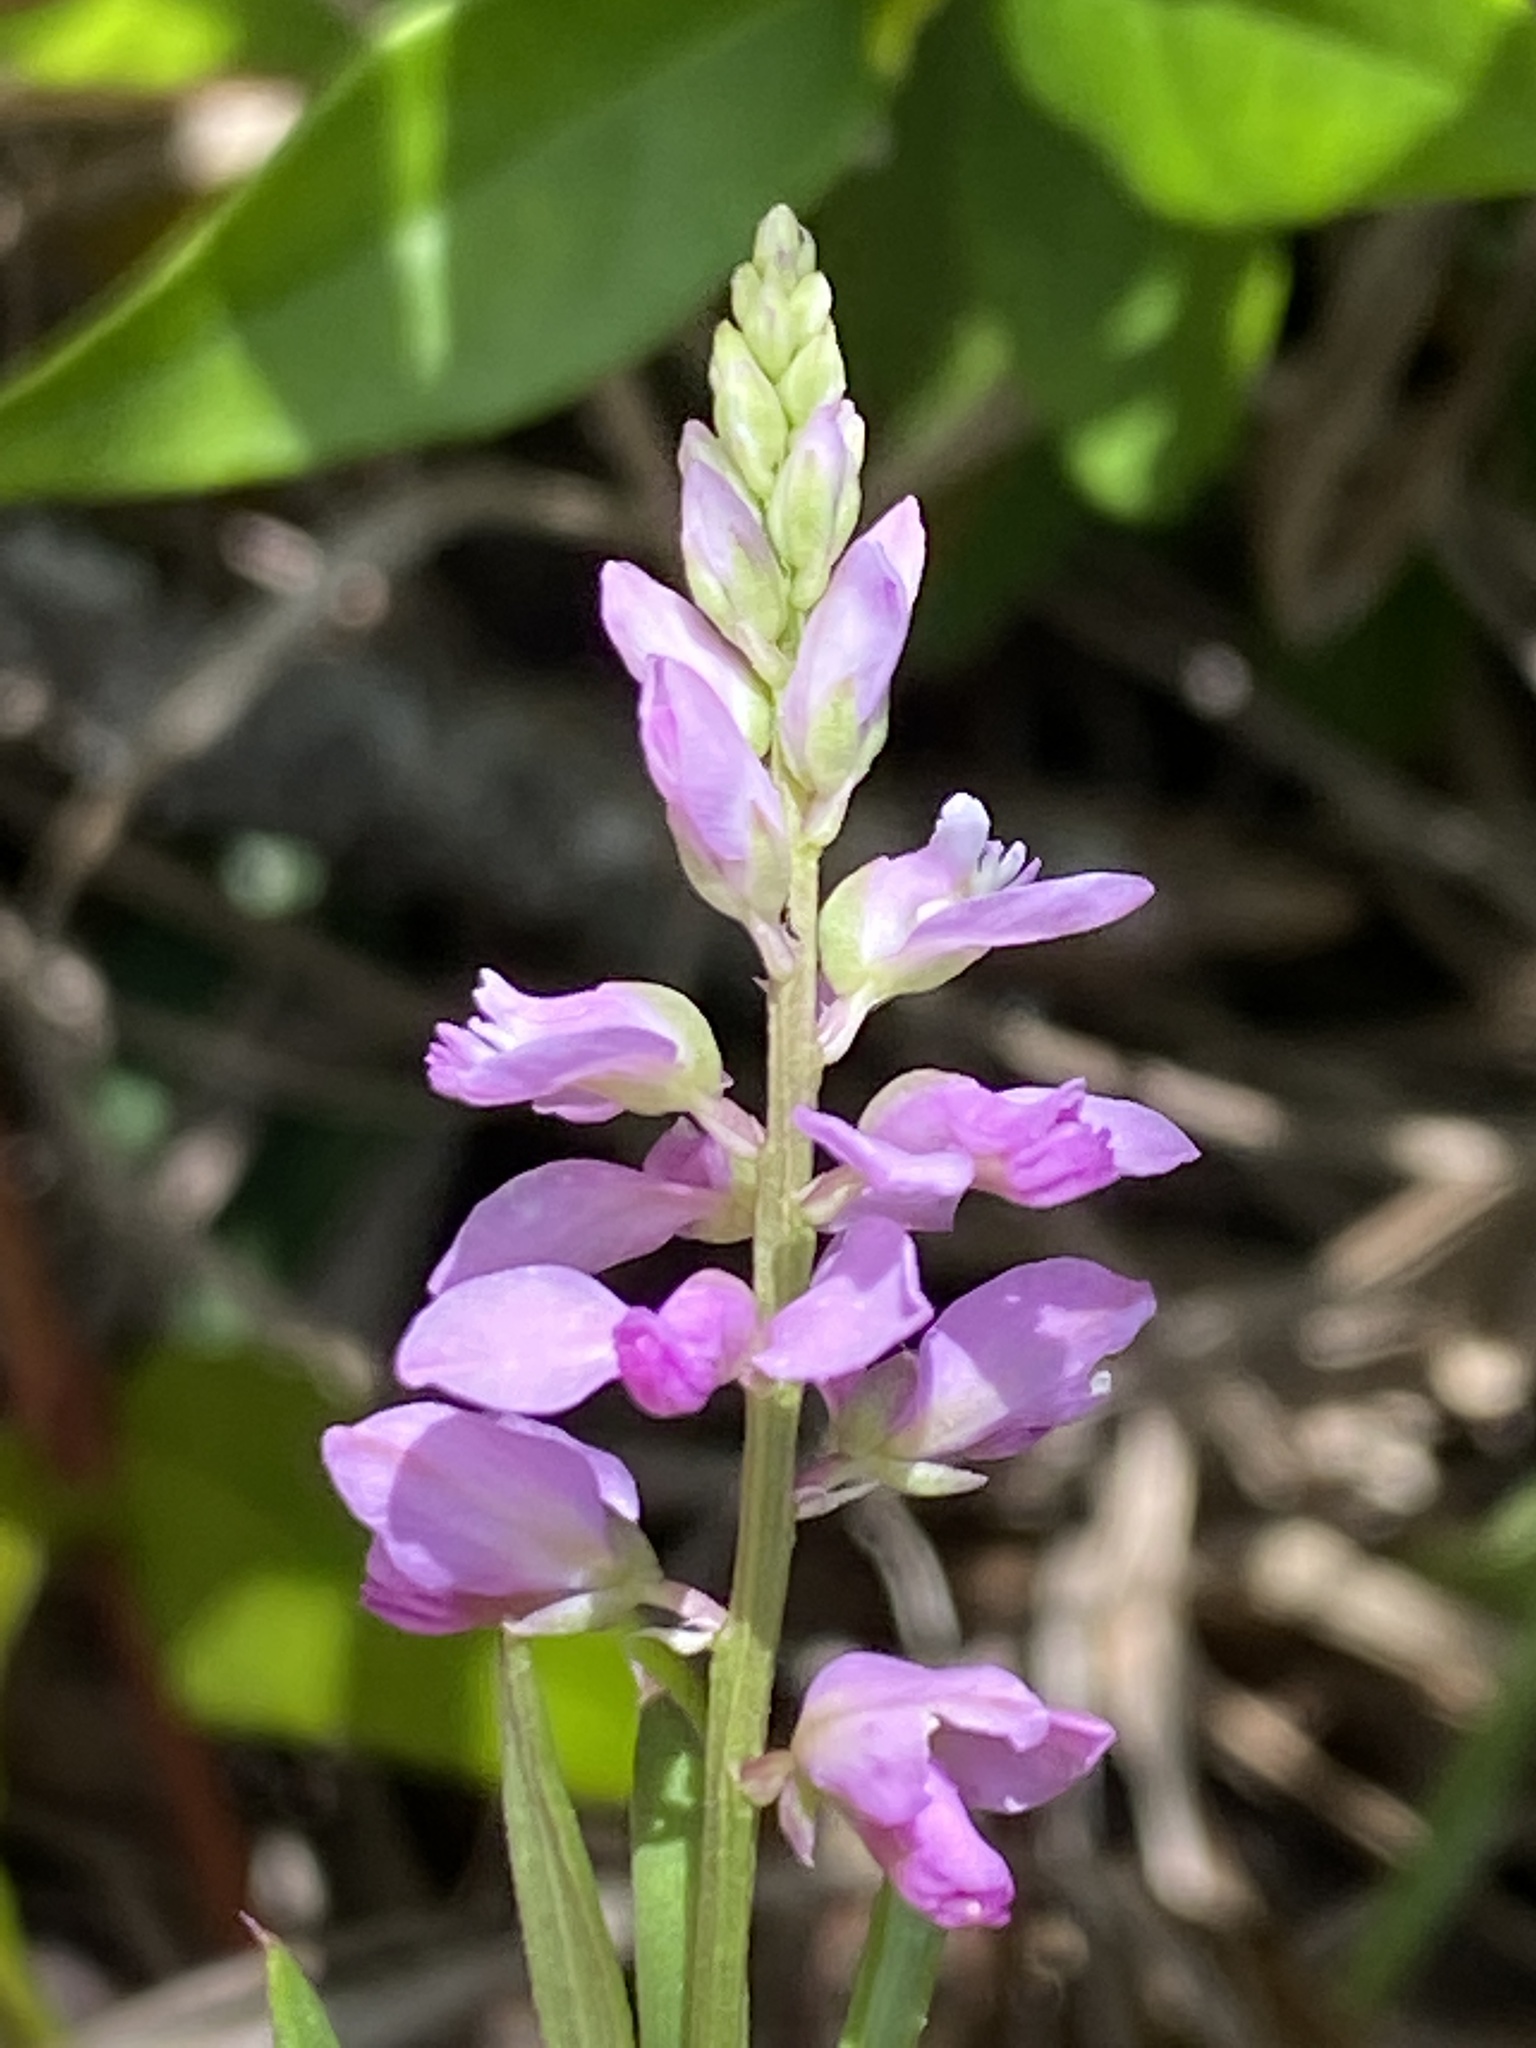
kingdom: Plantae
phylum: Tracheophyta
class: Magnoliopsida
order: Fabales
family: Polygalaceae
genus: Polygala
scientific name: Polygala polygama
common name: Bitter milkwort
